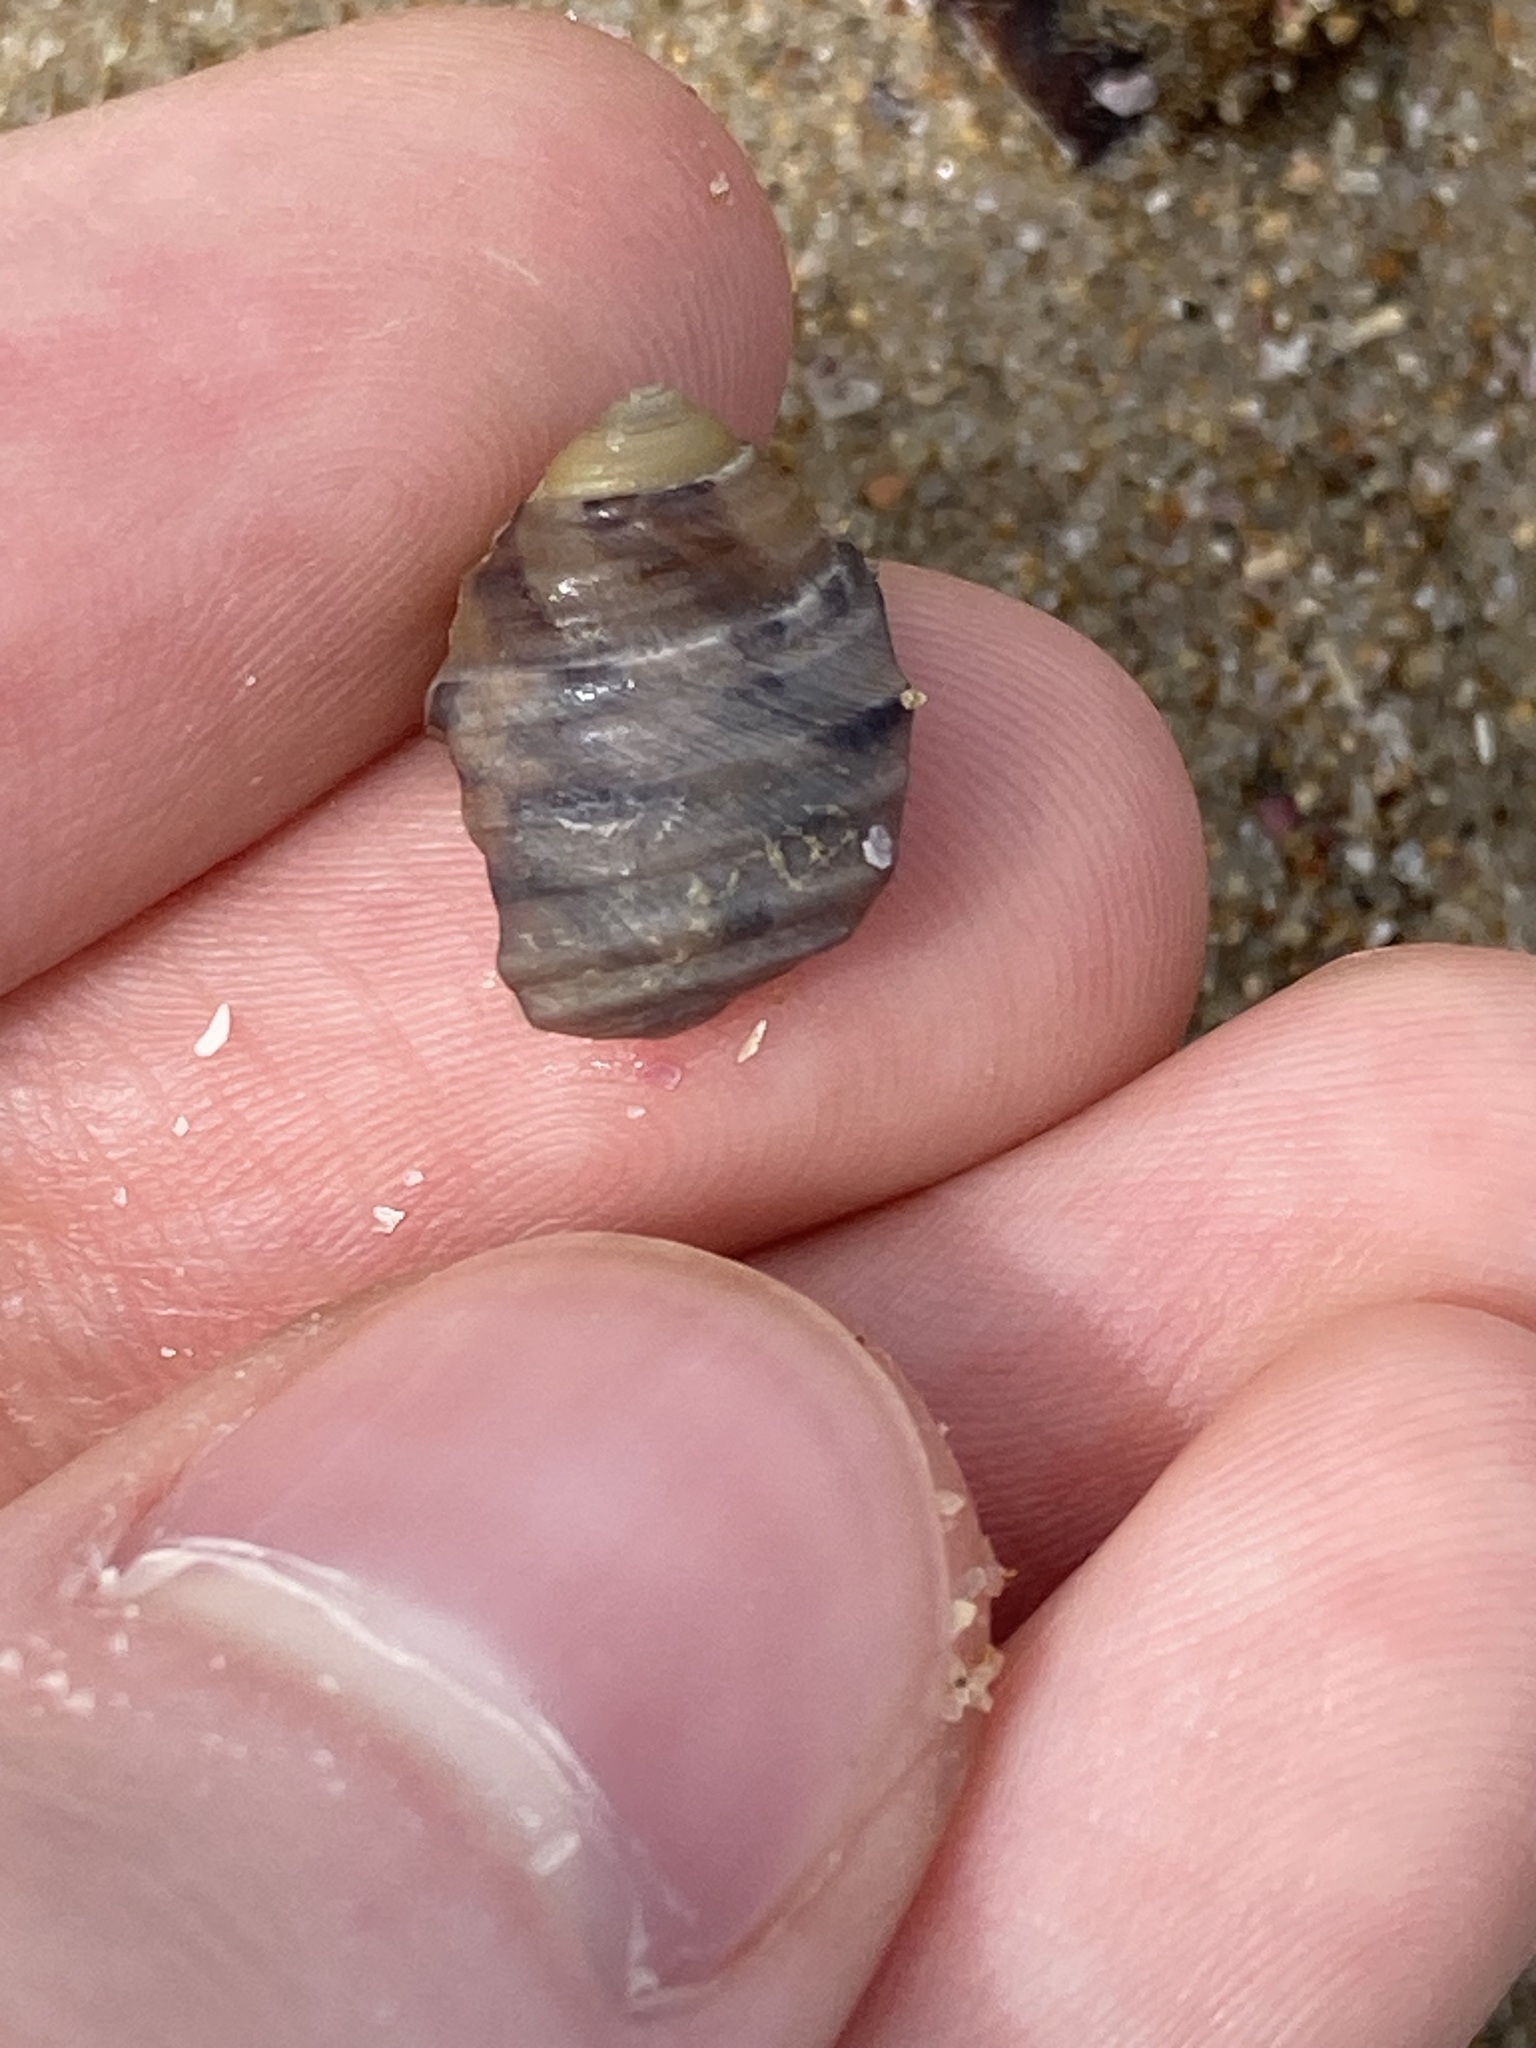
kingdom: Animalia
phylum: Mollusca
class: Gastropoda
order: Trochida
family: Trochidae
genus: Austrocochlea
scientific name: Austrocochlea constricta
